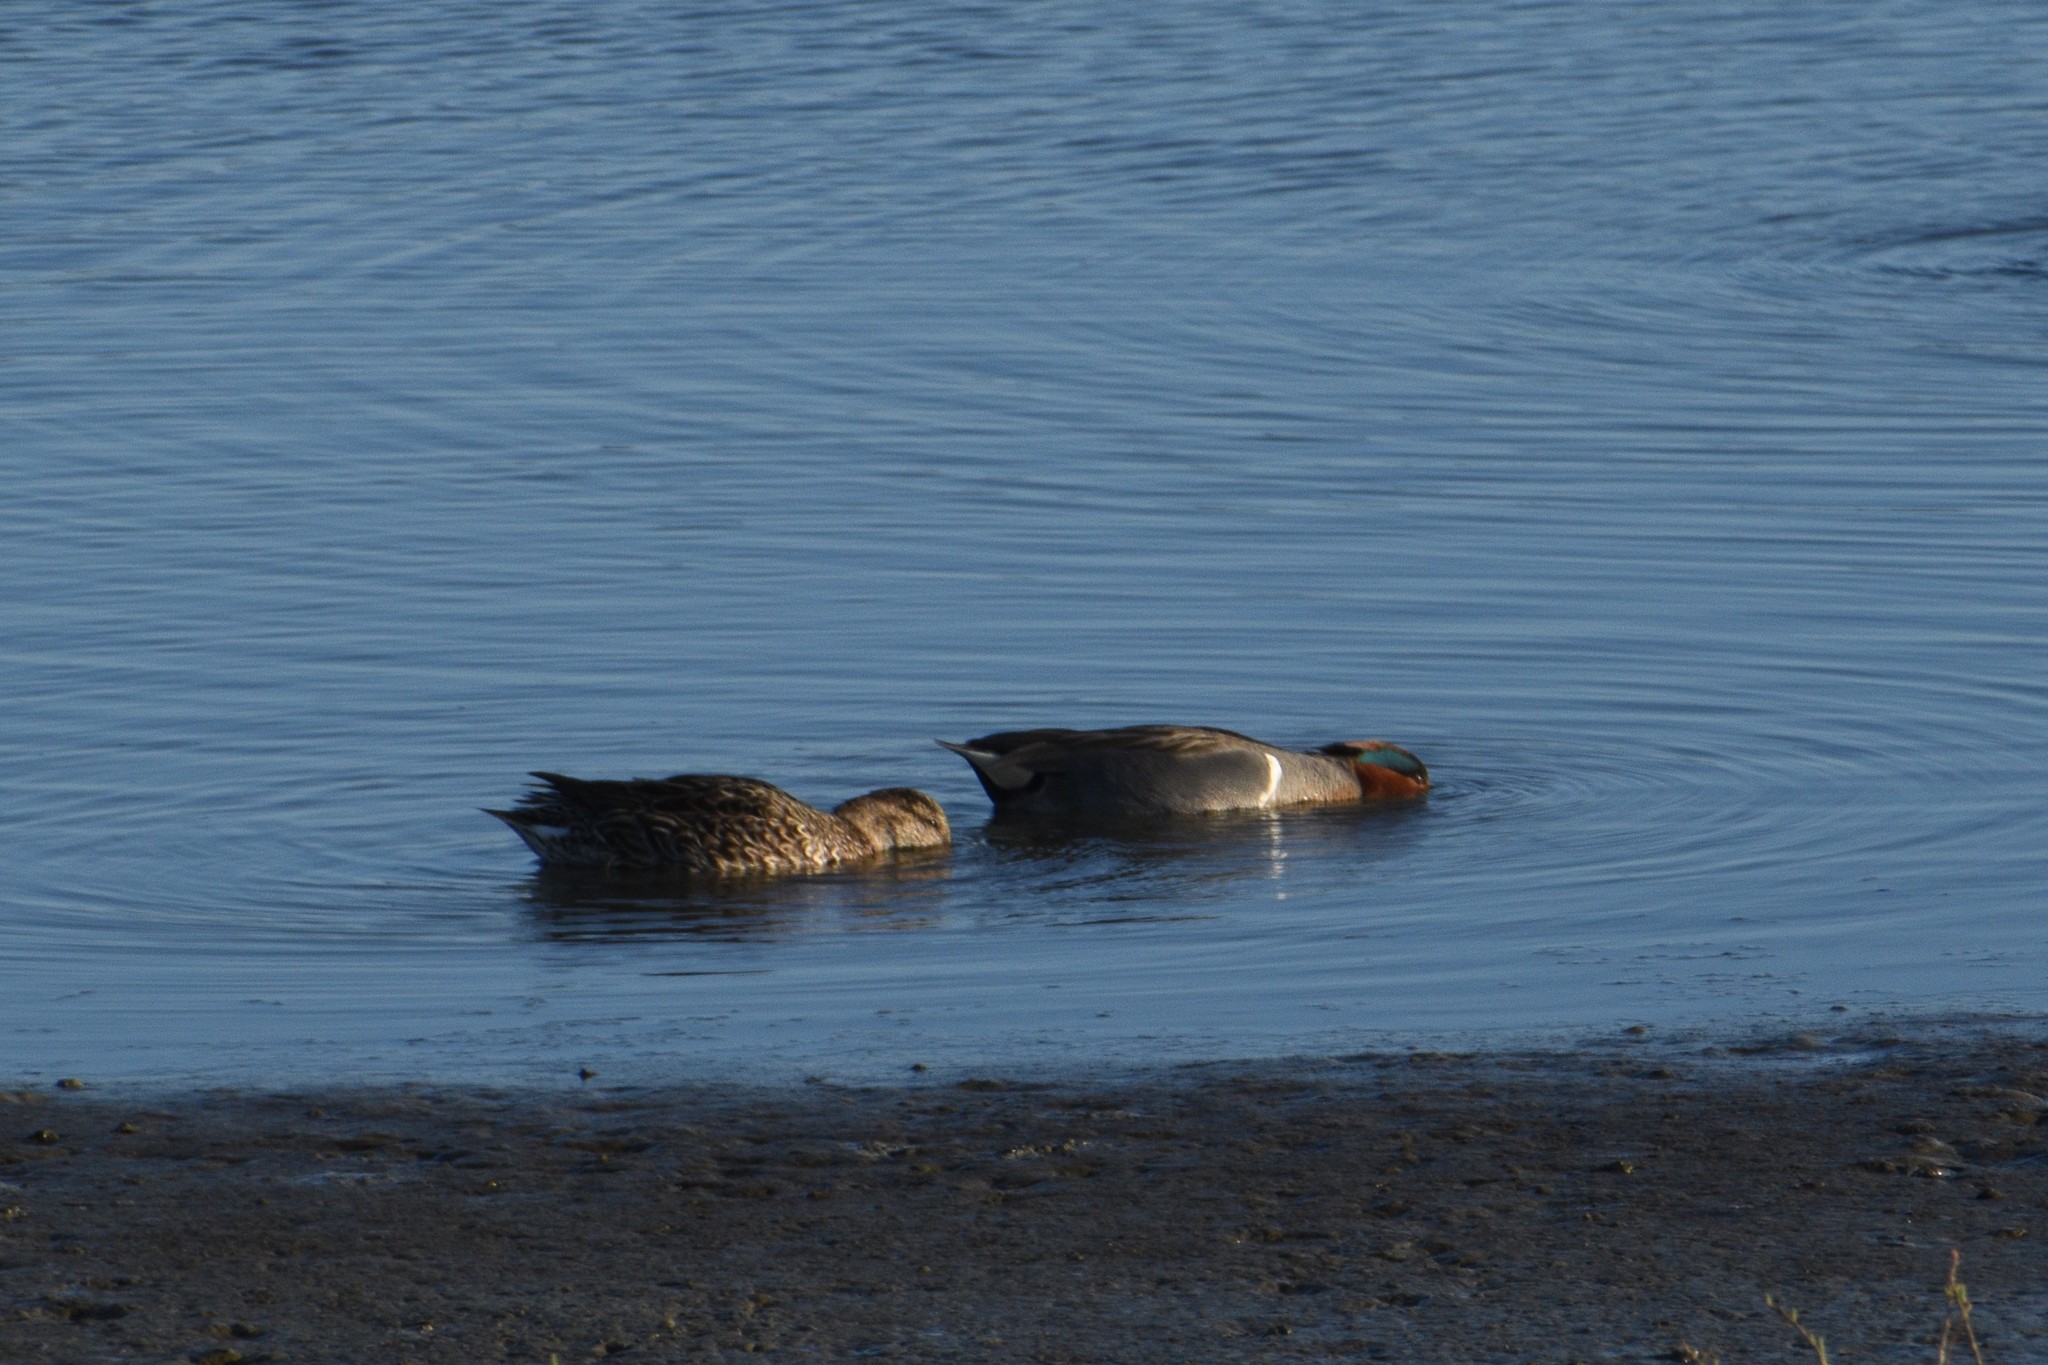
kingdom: Animalia
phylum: Chordata
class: Aves
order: Anseriformes
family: Anatidae
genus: Anas
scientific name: Anas crecca
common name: Eurasian teal
